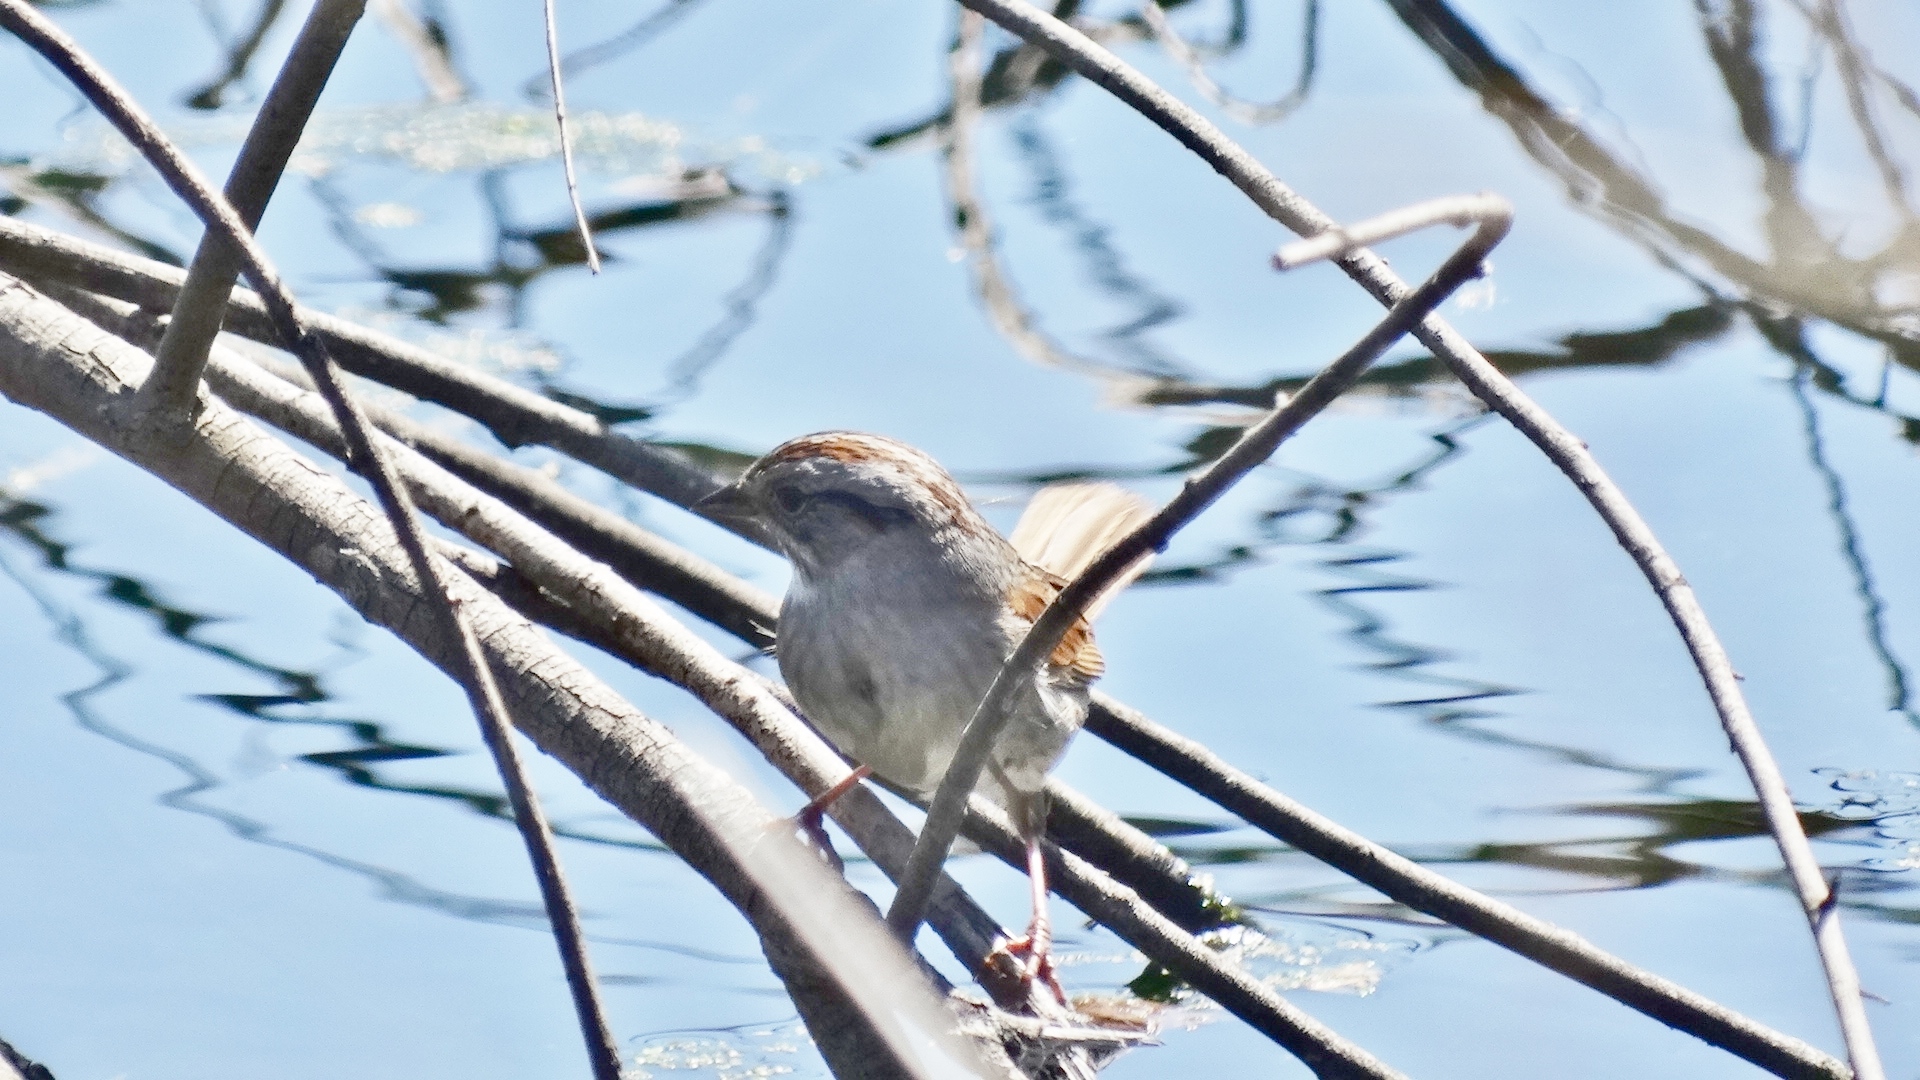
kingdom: Animalia
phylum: Chordata
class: Aves
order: Passeriformes
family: Passerellidae
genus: Melospiza
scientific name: Melospiza georgiana
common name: Swamp sparrow
